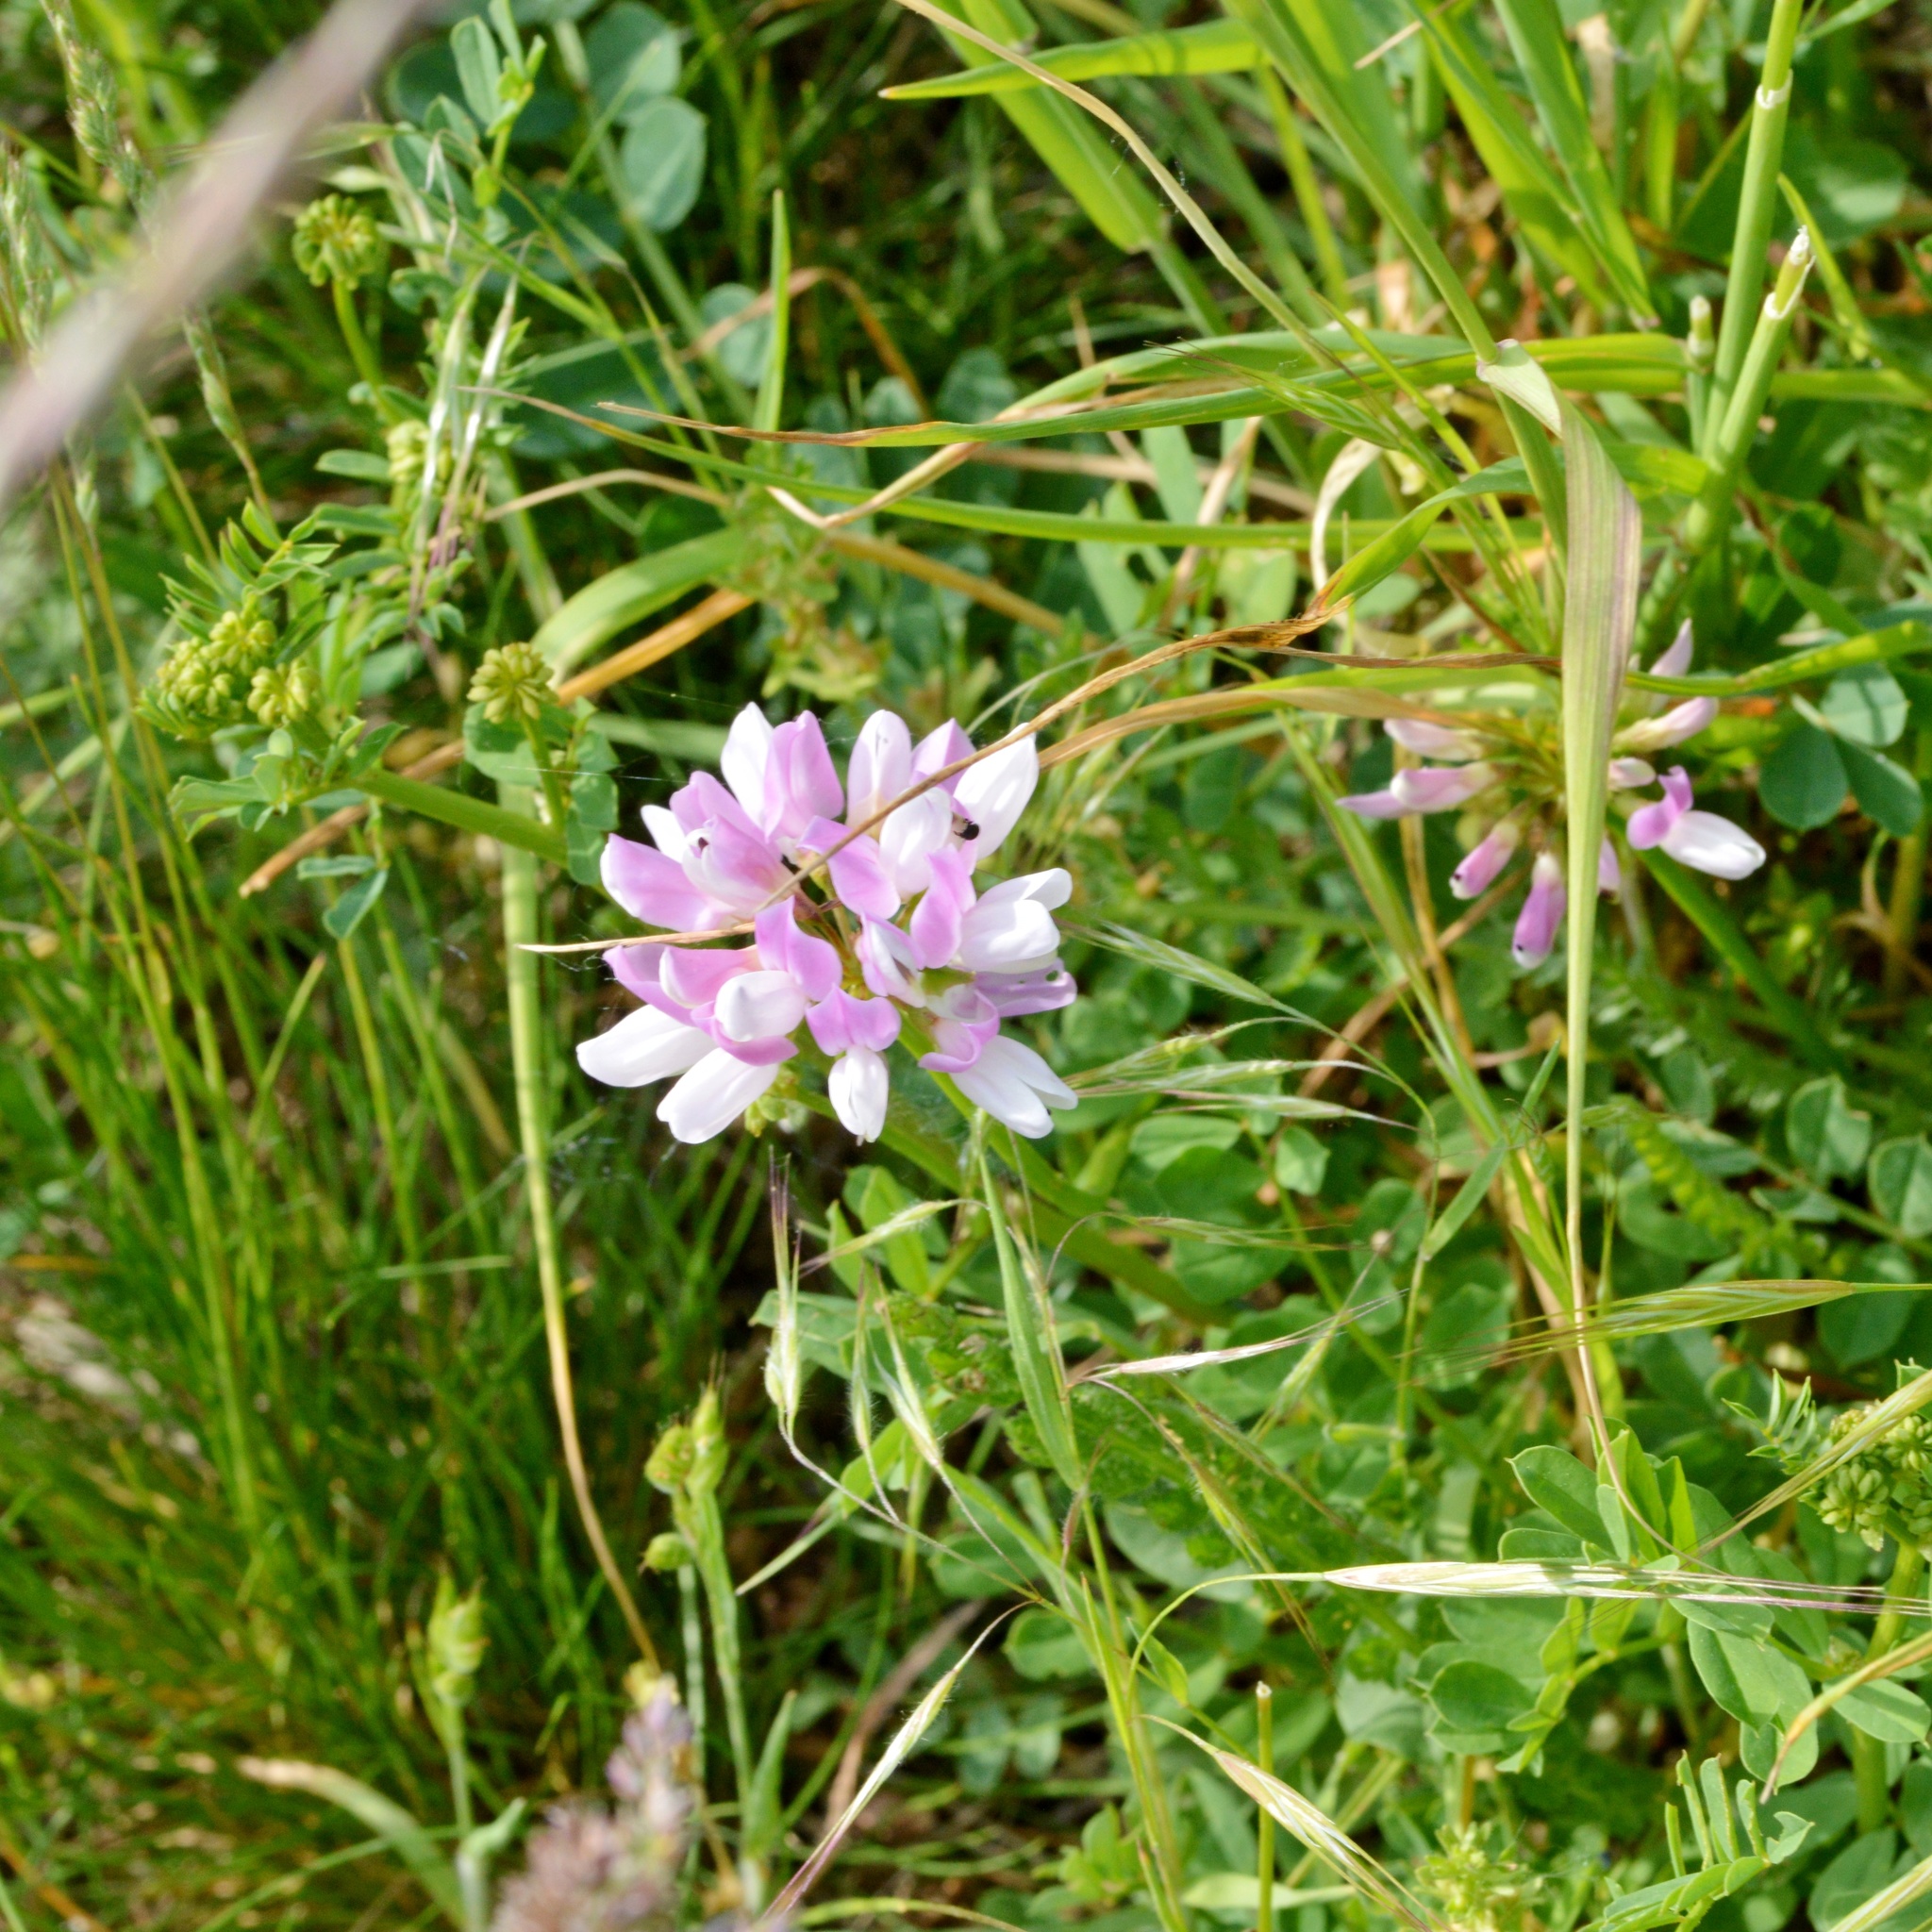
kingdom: Plantae
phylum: Tracheophyta
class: Magnoliopsida
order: Fabales
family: Fabaceae
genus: Coronilla
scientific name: Coronilla varia
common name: Crownvetch
